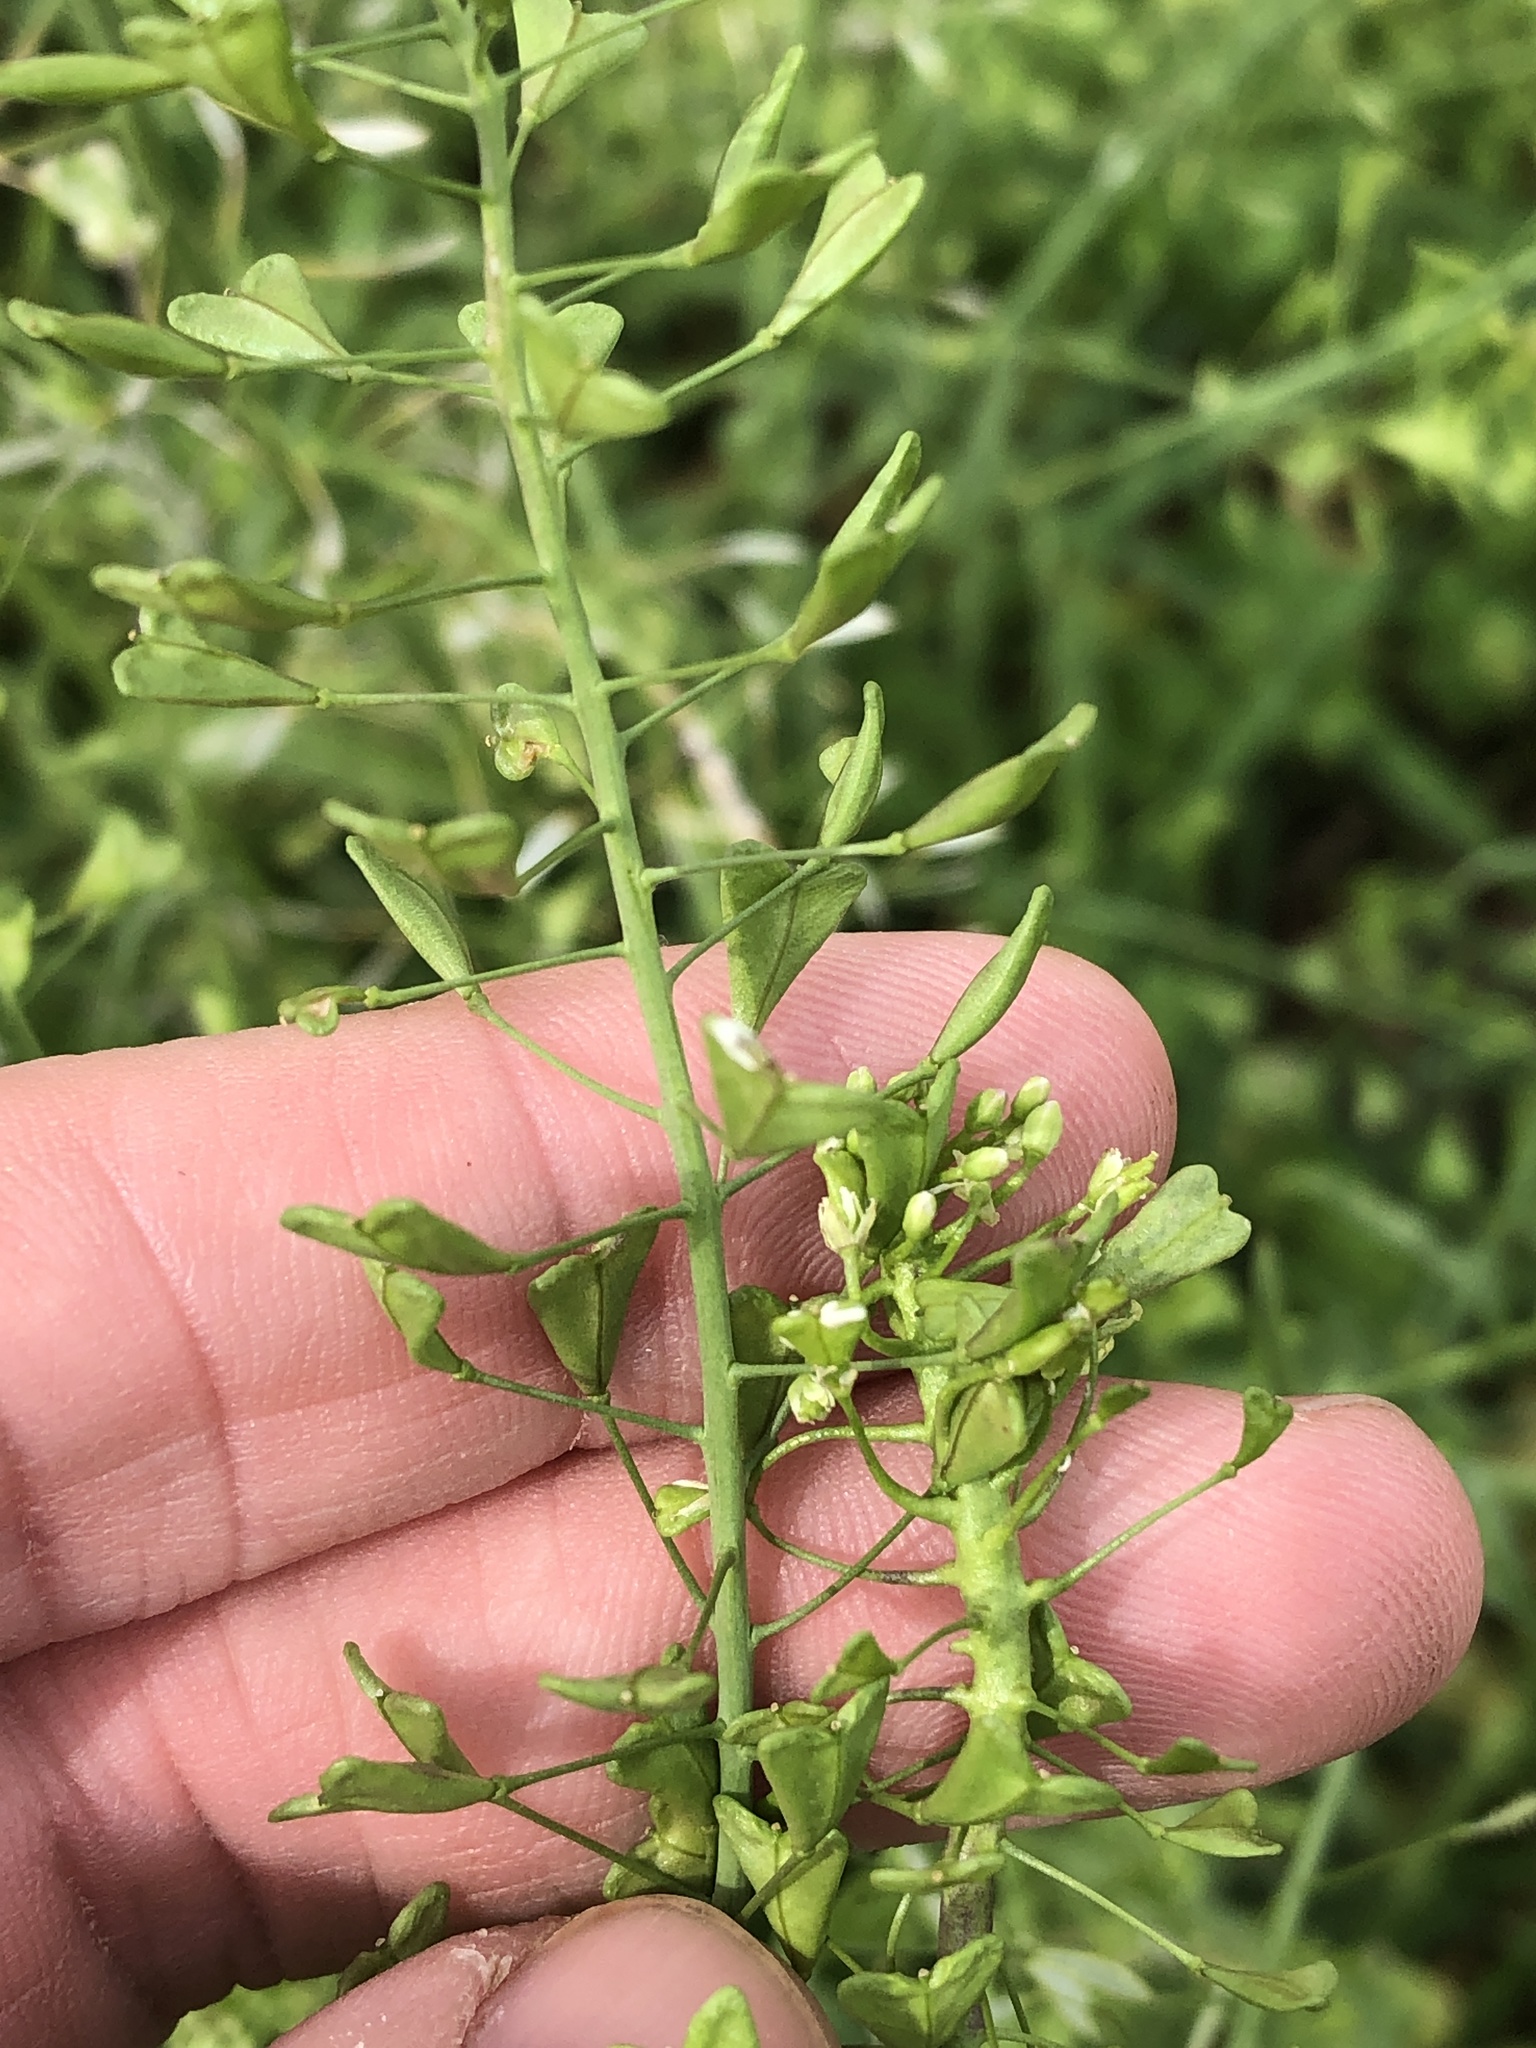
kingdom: Plantae
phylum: Tracheophyta
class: Magnoliopsida
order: Brassicales
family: Brassicaceae
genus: Capsella
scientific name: Capsella bursa-pastoris
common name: Shepherd's purse
